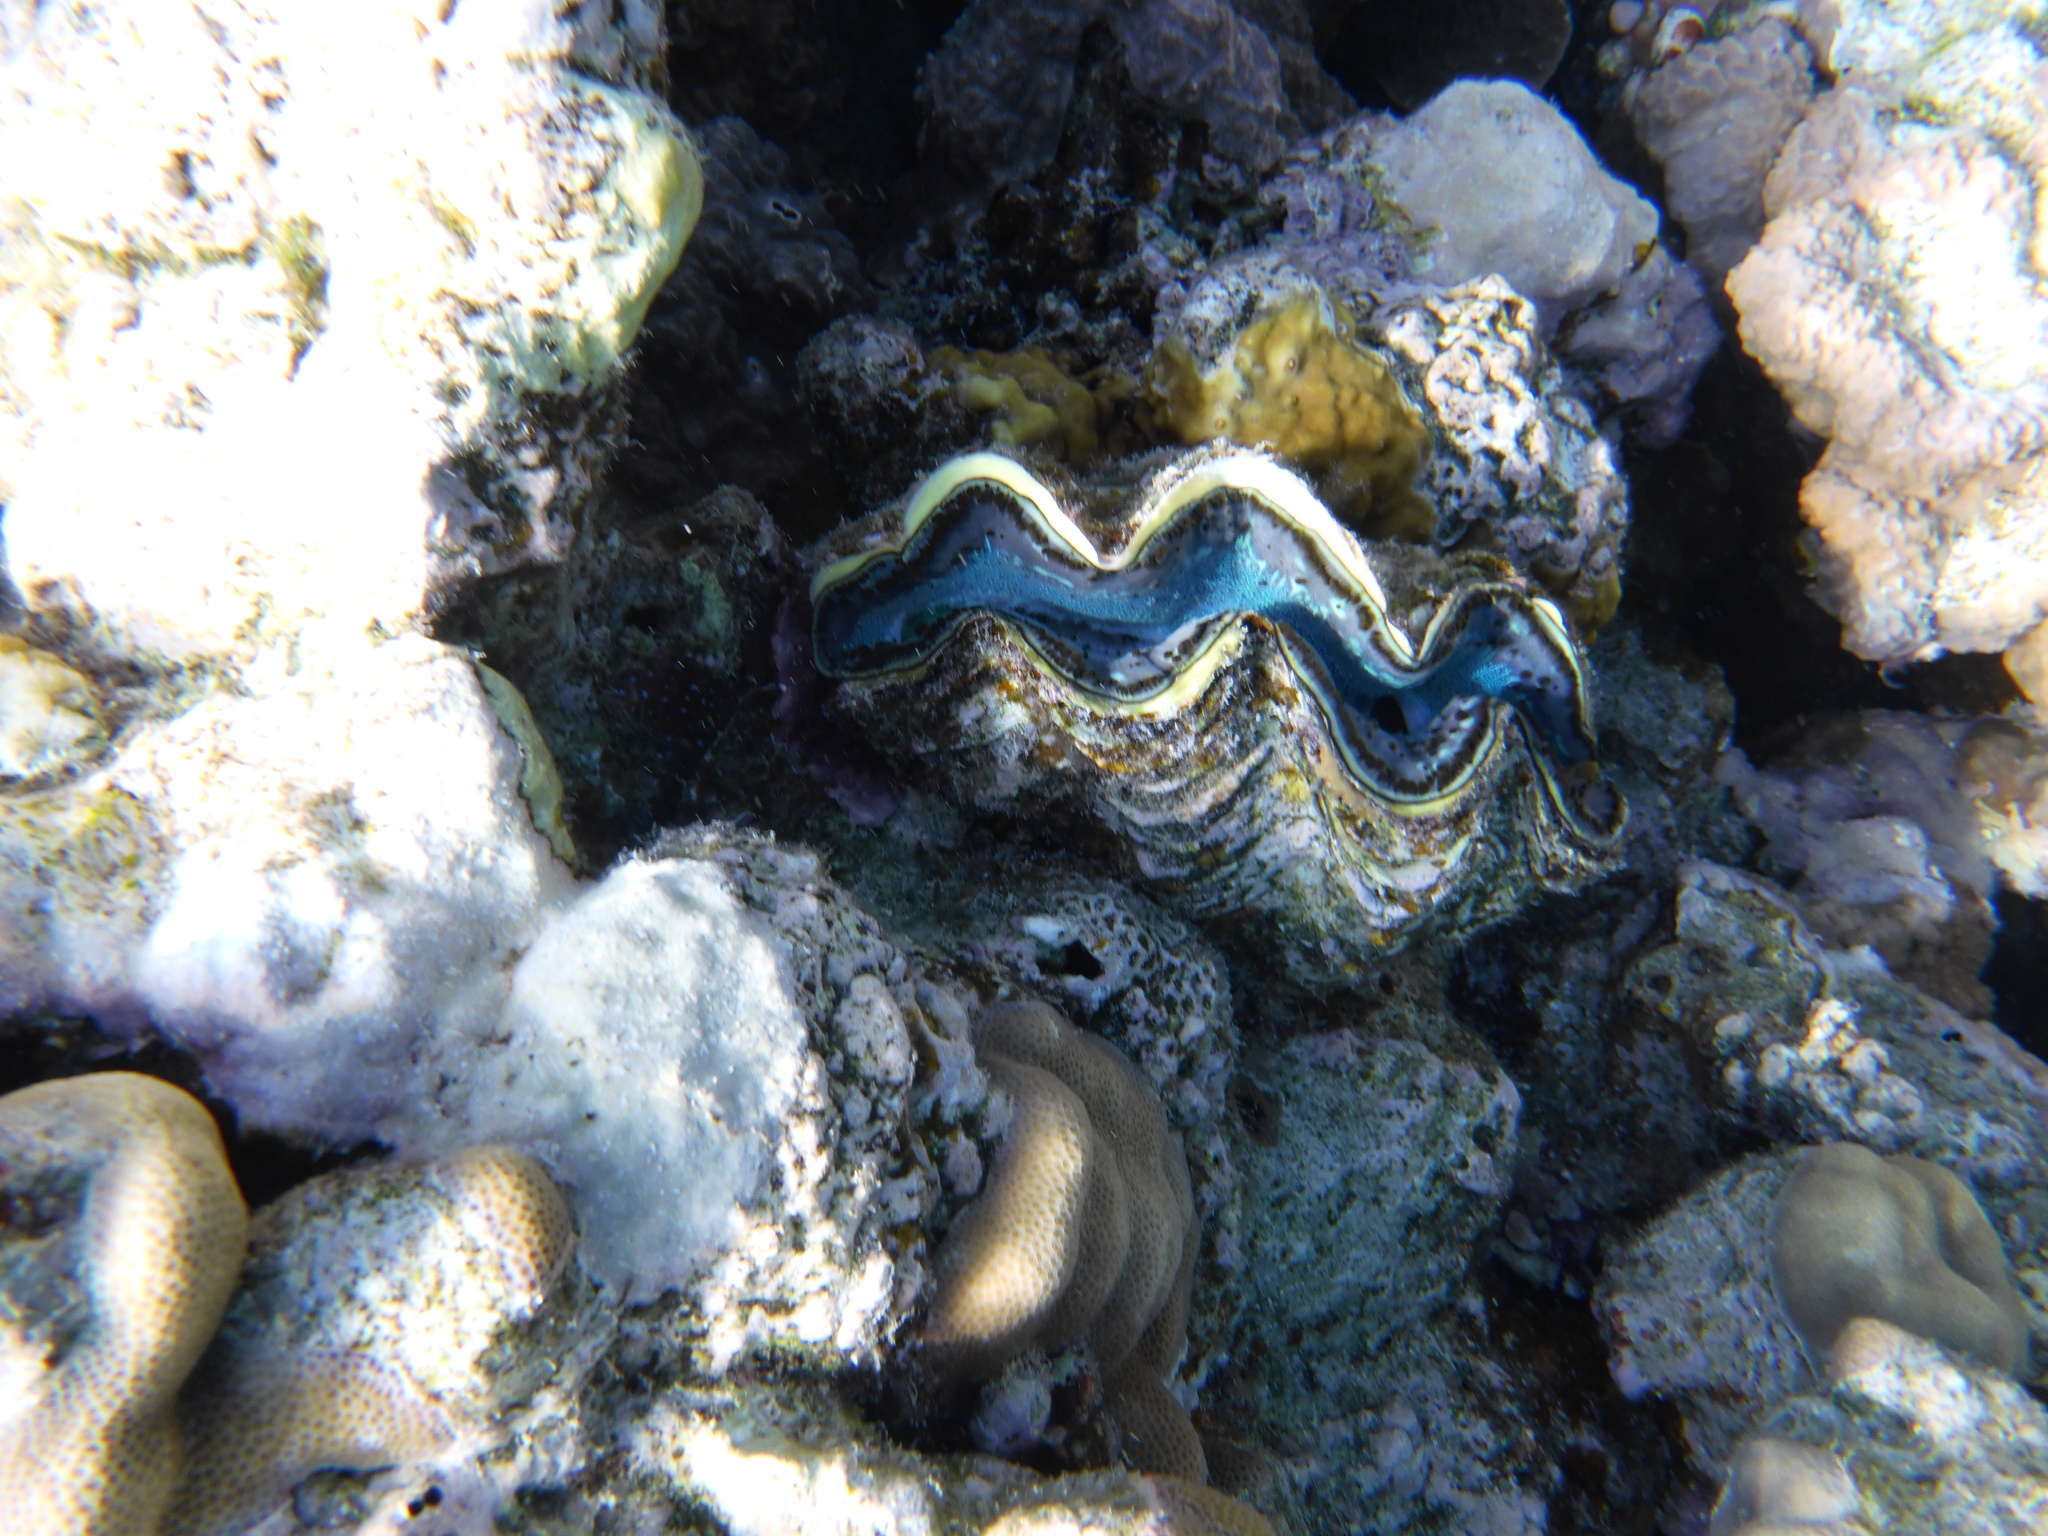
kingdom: Animalia
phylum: Mollusca
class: Bivalvia
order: Cardiida
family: Cardiidae
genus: Tridacna
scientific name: Tridacna maxima
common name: Small giant clam
